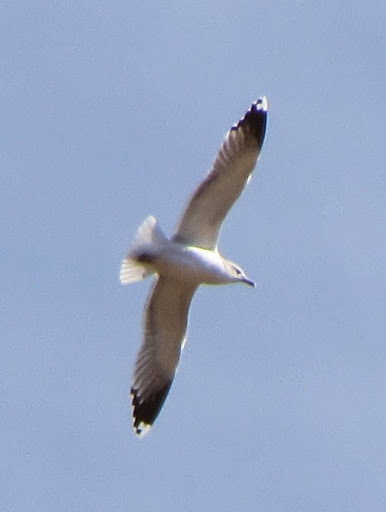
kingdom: Animalia
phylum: Chordata
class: Aves
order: Charadriiformes
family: Laridae
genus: Larus
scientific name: Larus delawarensis
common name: Ring-billed gull
